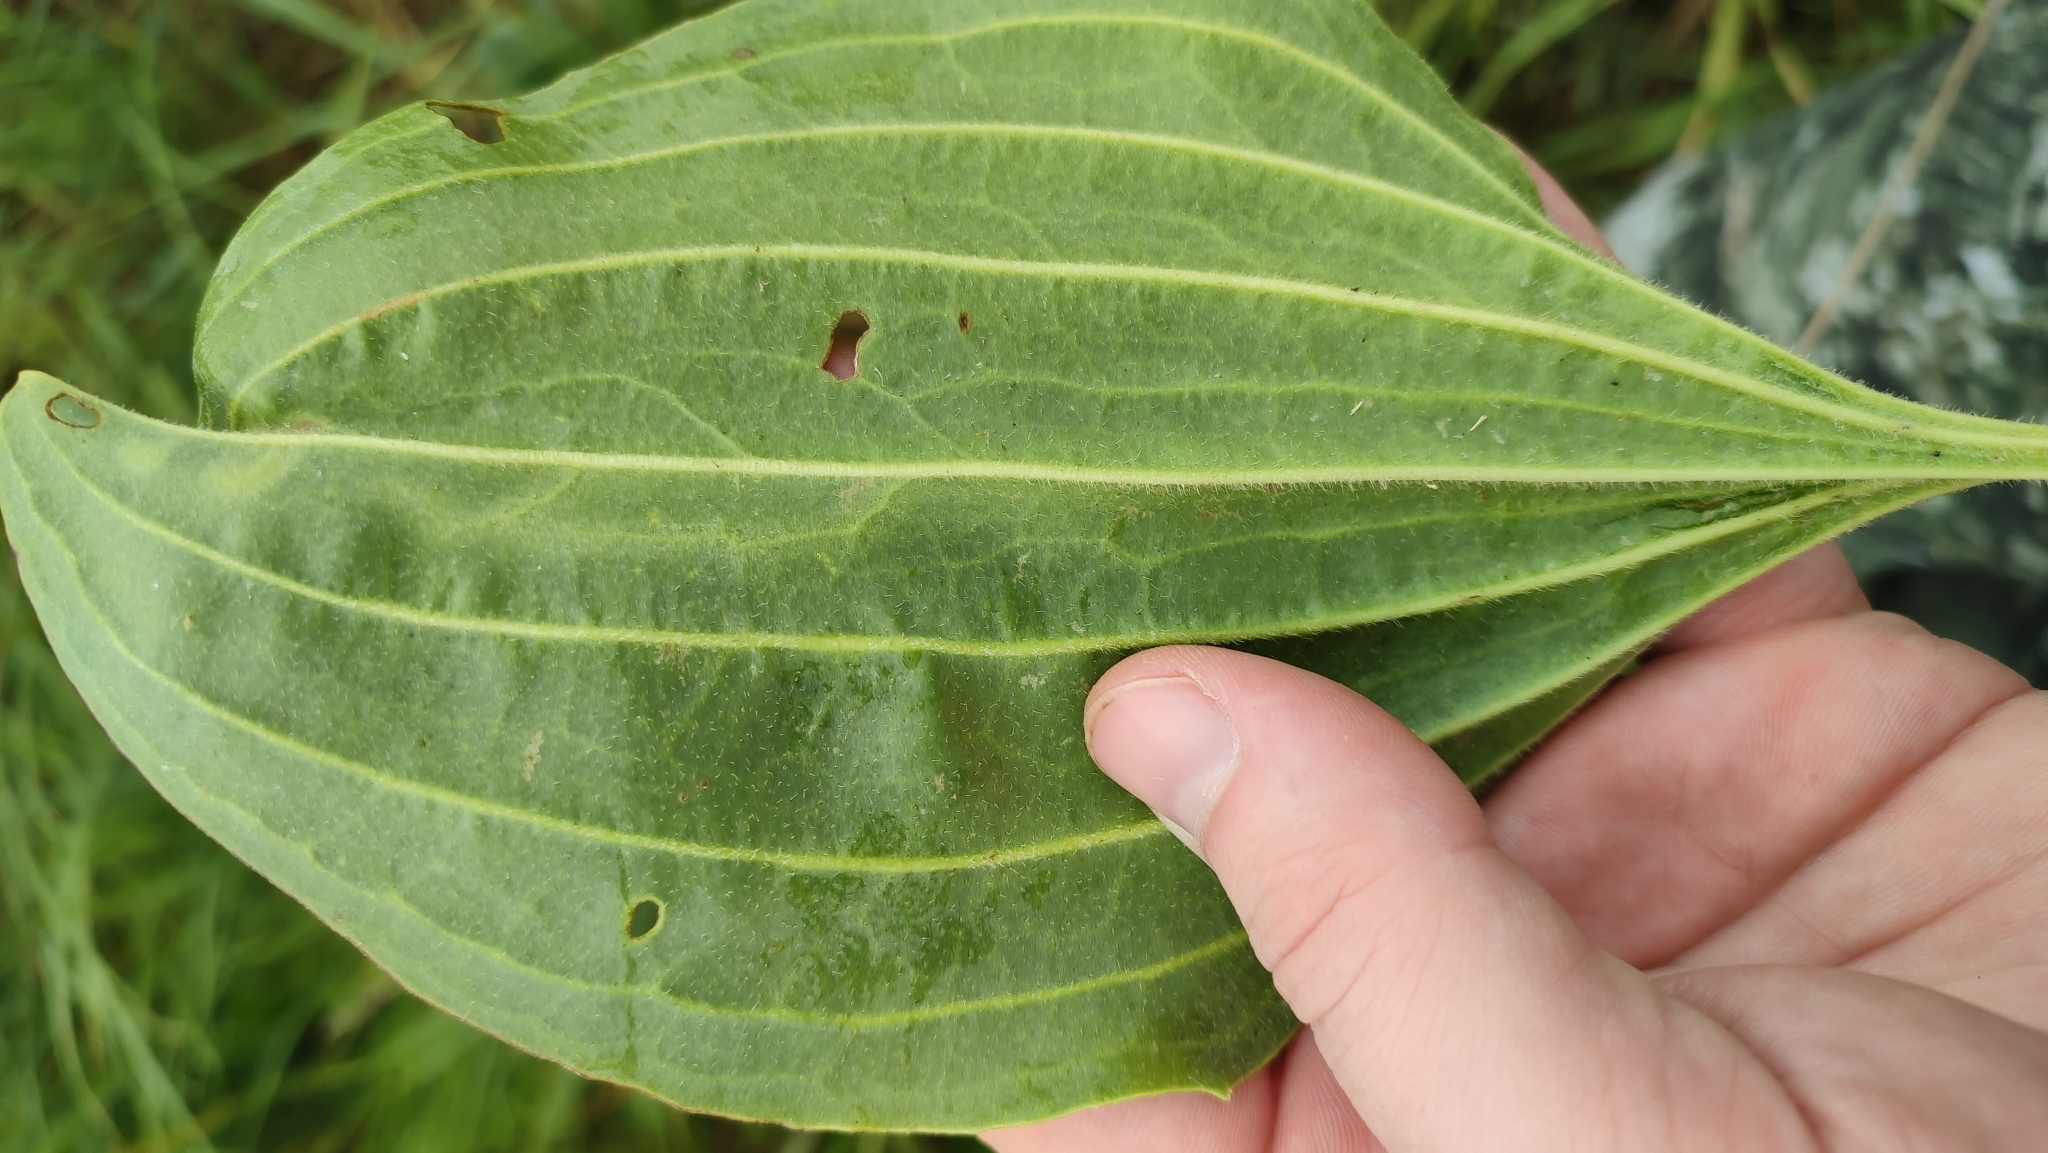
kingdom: Plantae
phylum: Tracheophyta
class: Magnoliopsida
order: Lamiales
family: Plantaginaceae
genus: Plantago
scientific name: Plantago cornuti
